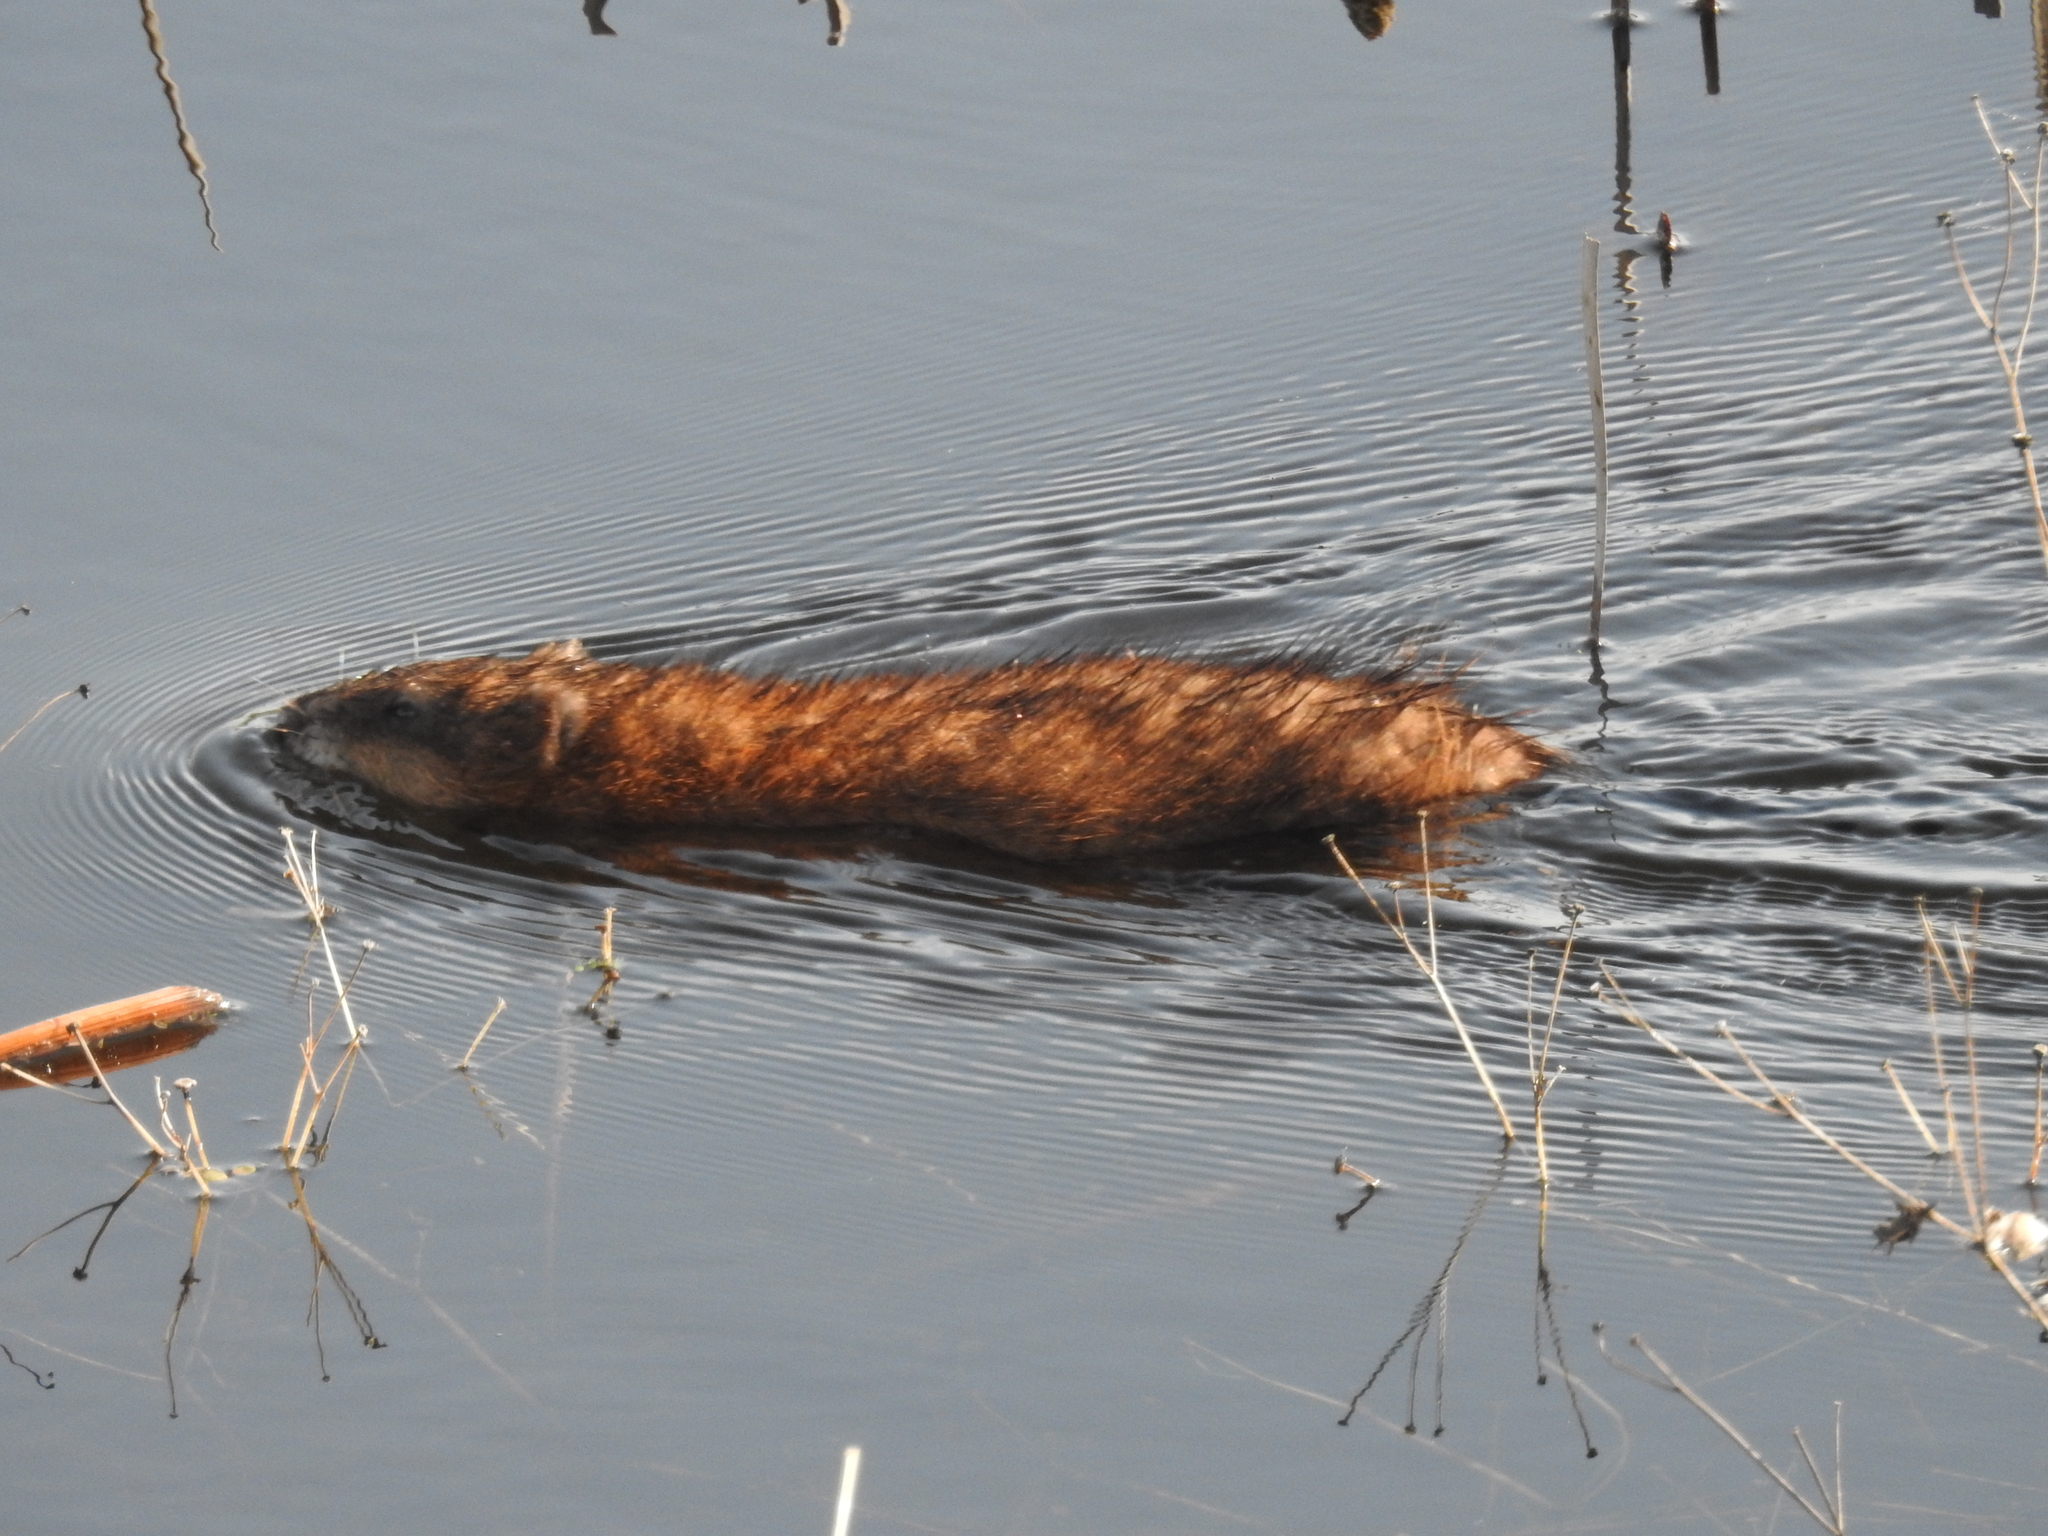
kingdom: Animalia
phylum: Chordata
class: Mammalia
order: Rodentia
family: Cricetidae
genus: Ondatra
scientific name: Ondatra zibethicus
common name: Muskrat
